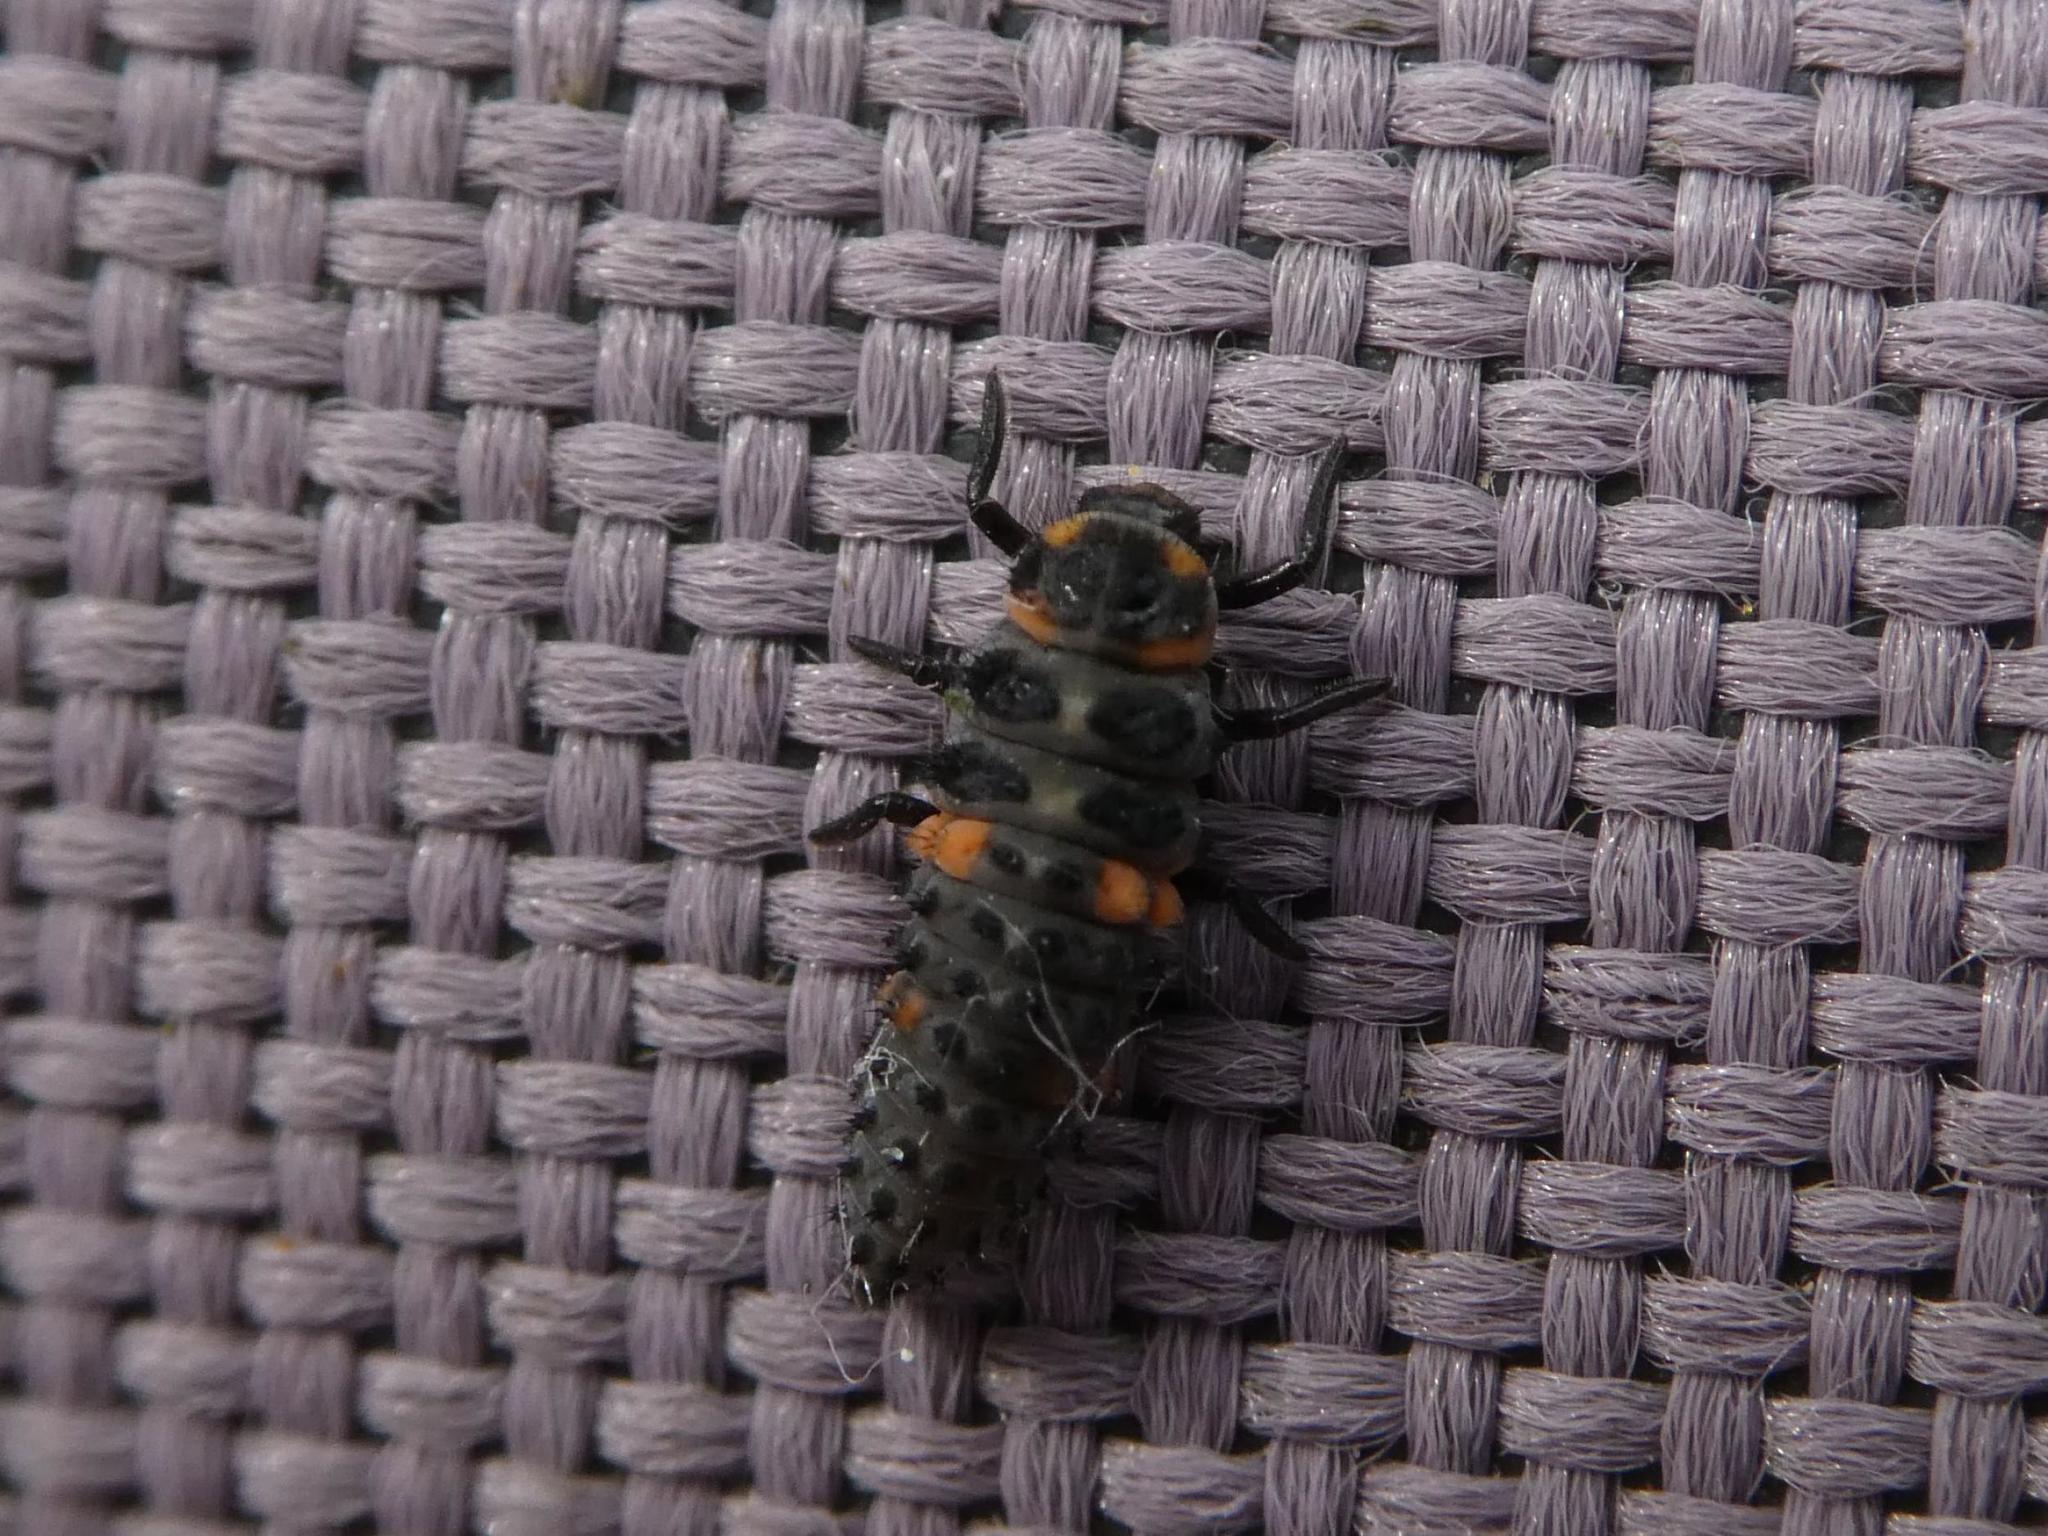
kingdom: Animalia
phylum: Arthropoda
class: Insecta
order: Coleoptera
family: Coccinellidae
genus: Coccinella
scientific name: Coccinella septempunctata
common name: Sevenspotted lady beetle
